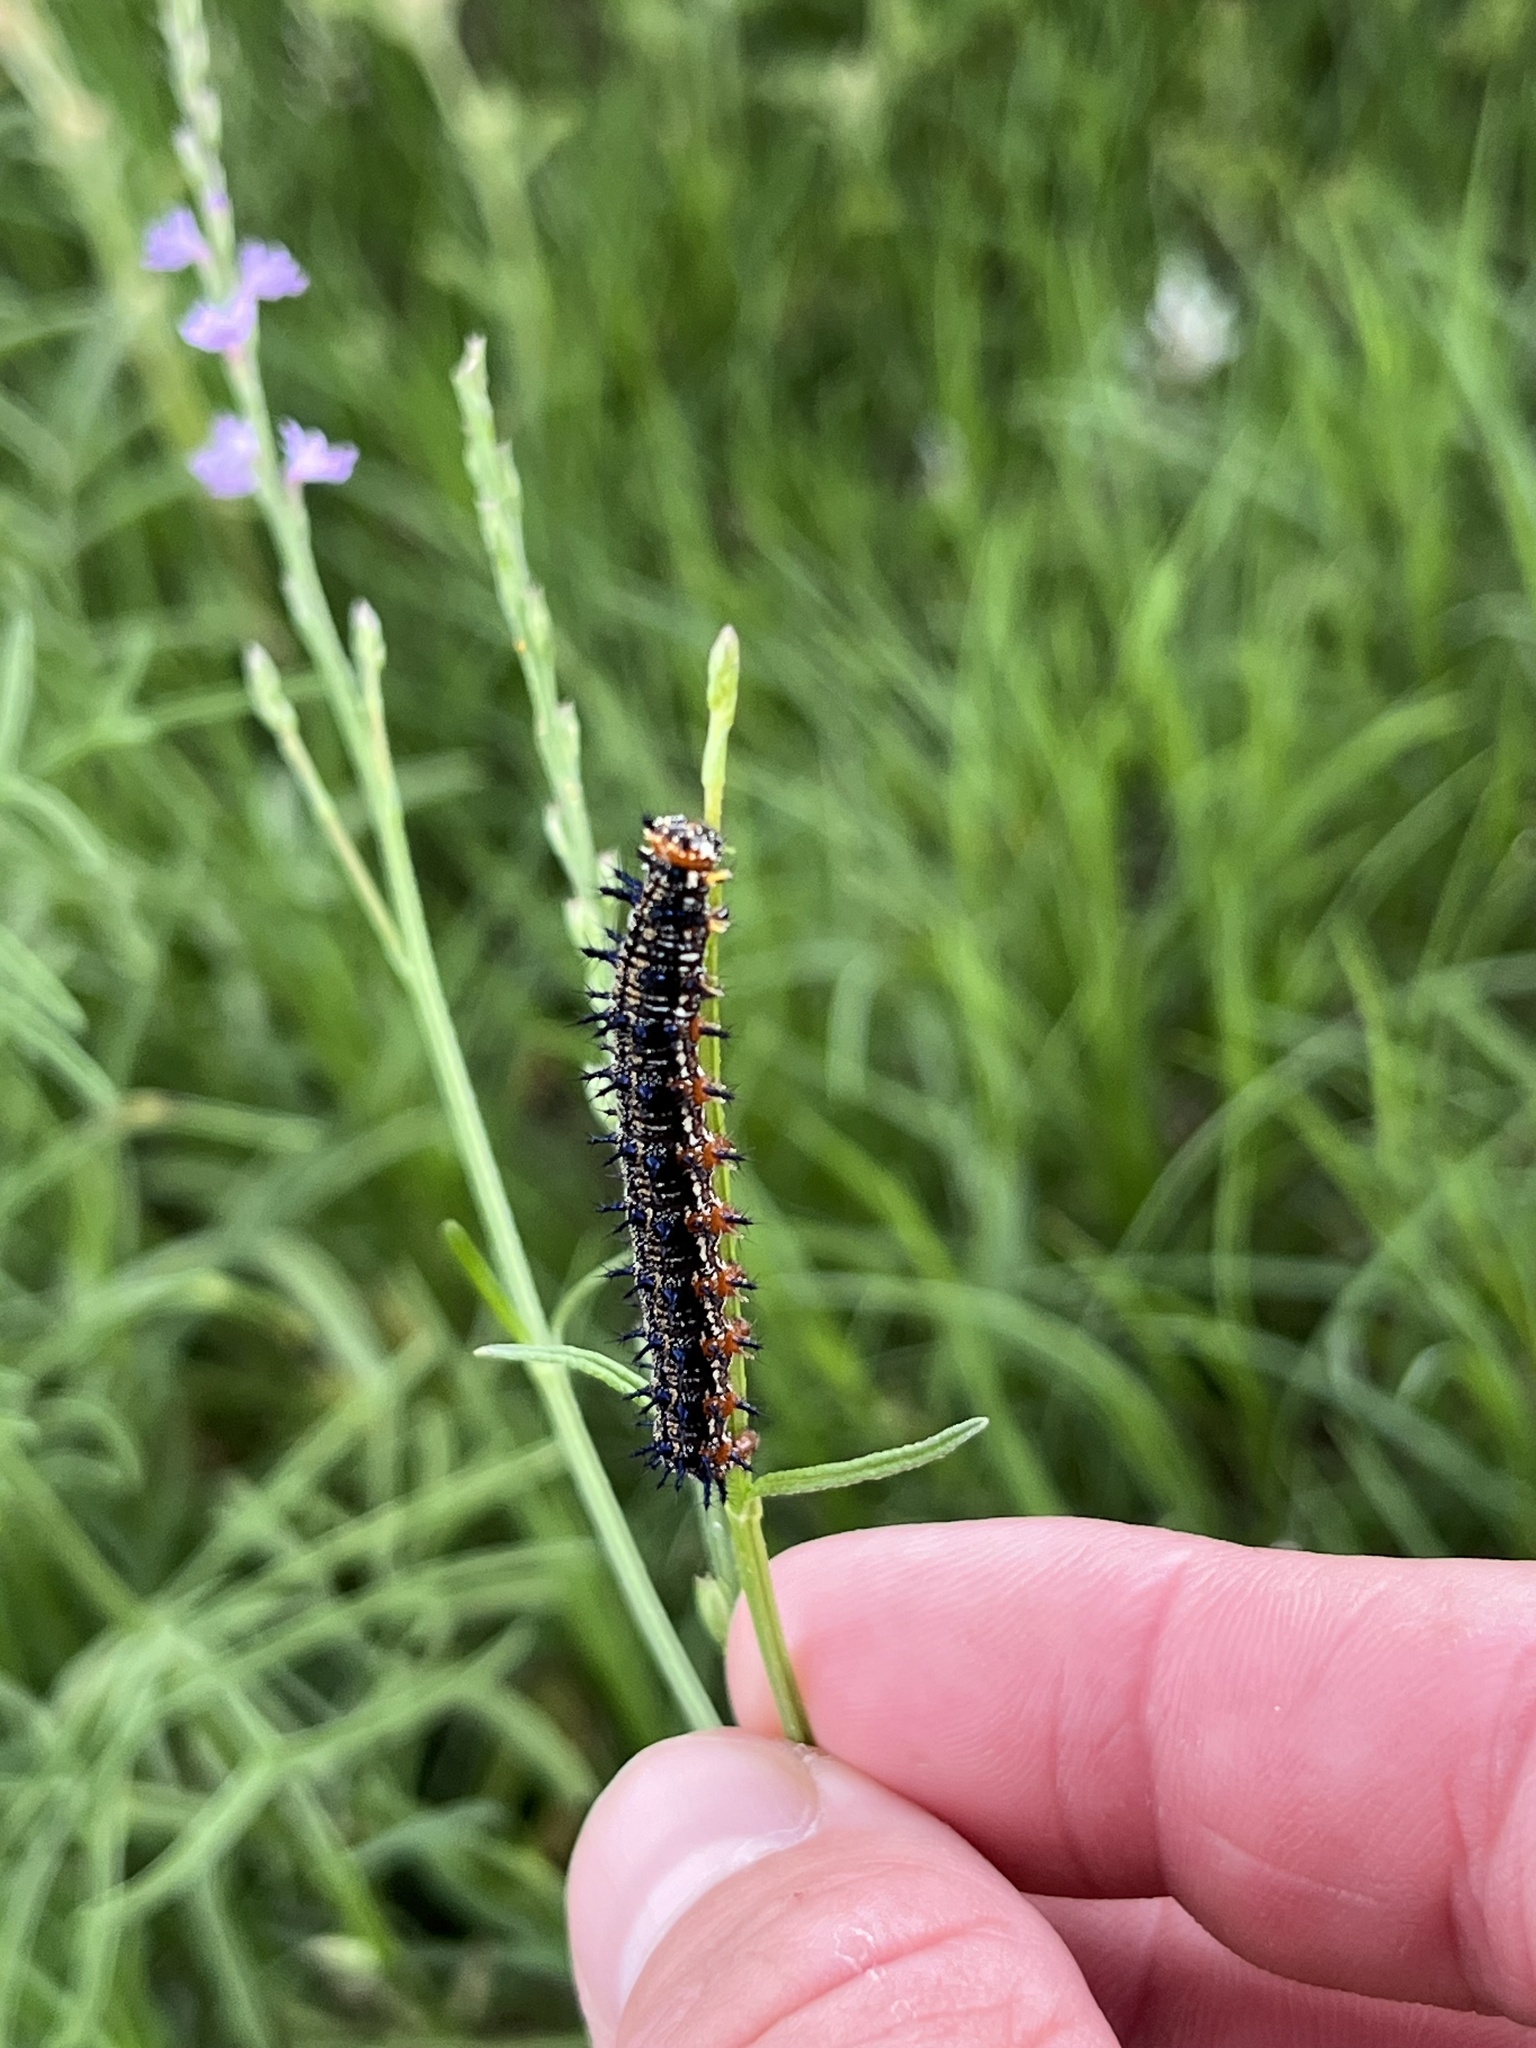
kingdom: Animalia
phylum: Arthropoda
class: Insecta
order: Lepidoptera
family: Nymphalidae
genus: Junonia
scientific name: Junonia coenia
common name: Common buckeye
